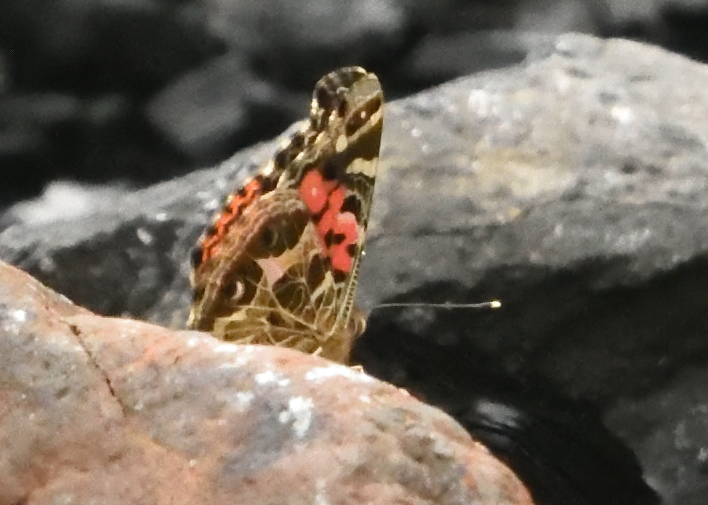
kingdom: Animalia
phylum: Arthropoda
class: Insecta
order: Lepidoptera
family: Nymphalidae
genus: Vanessa
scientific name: Vanessa braziliensis
